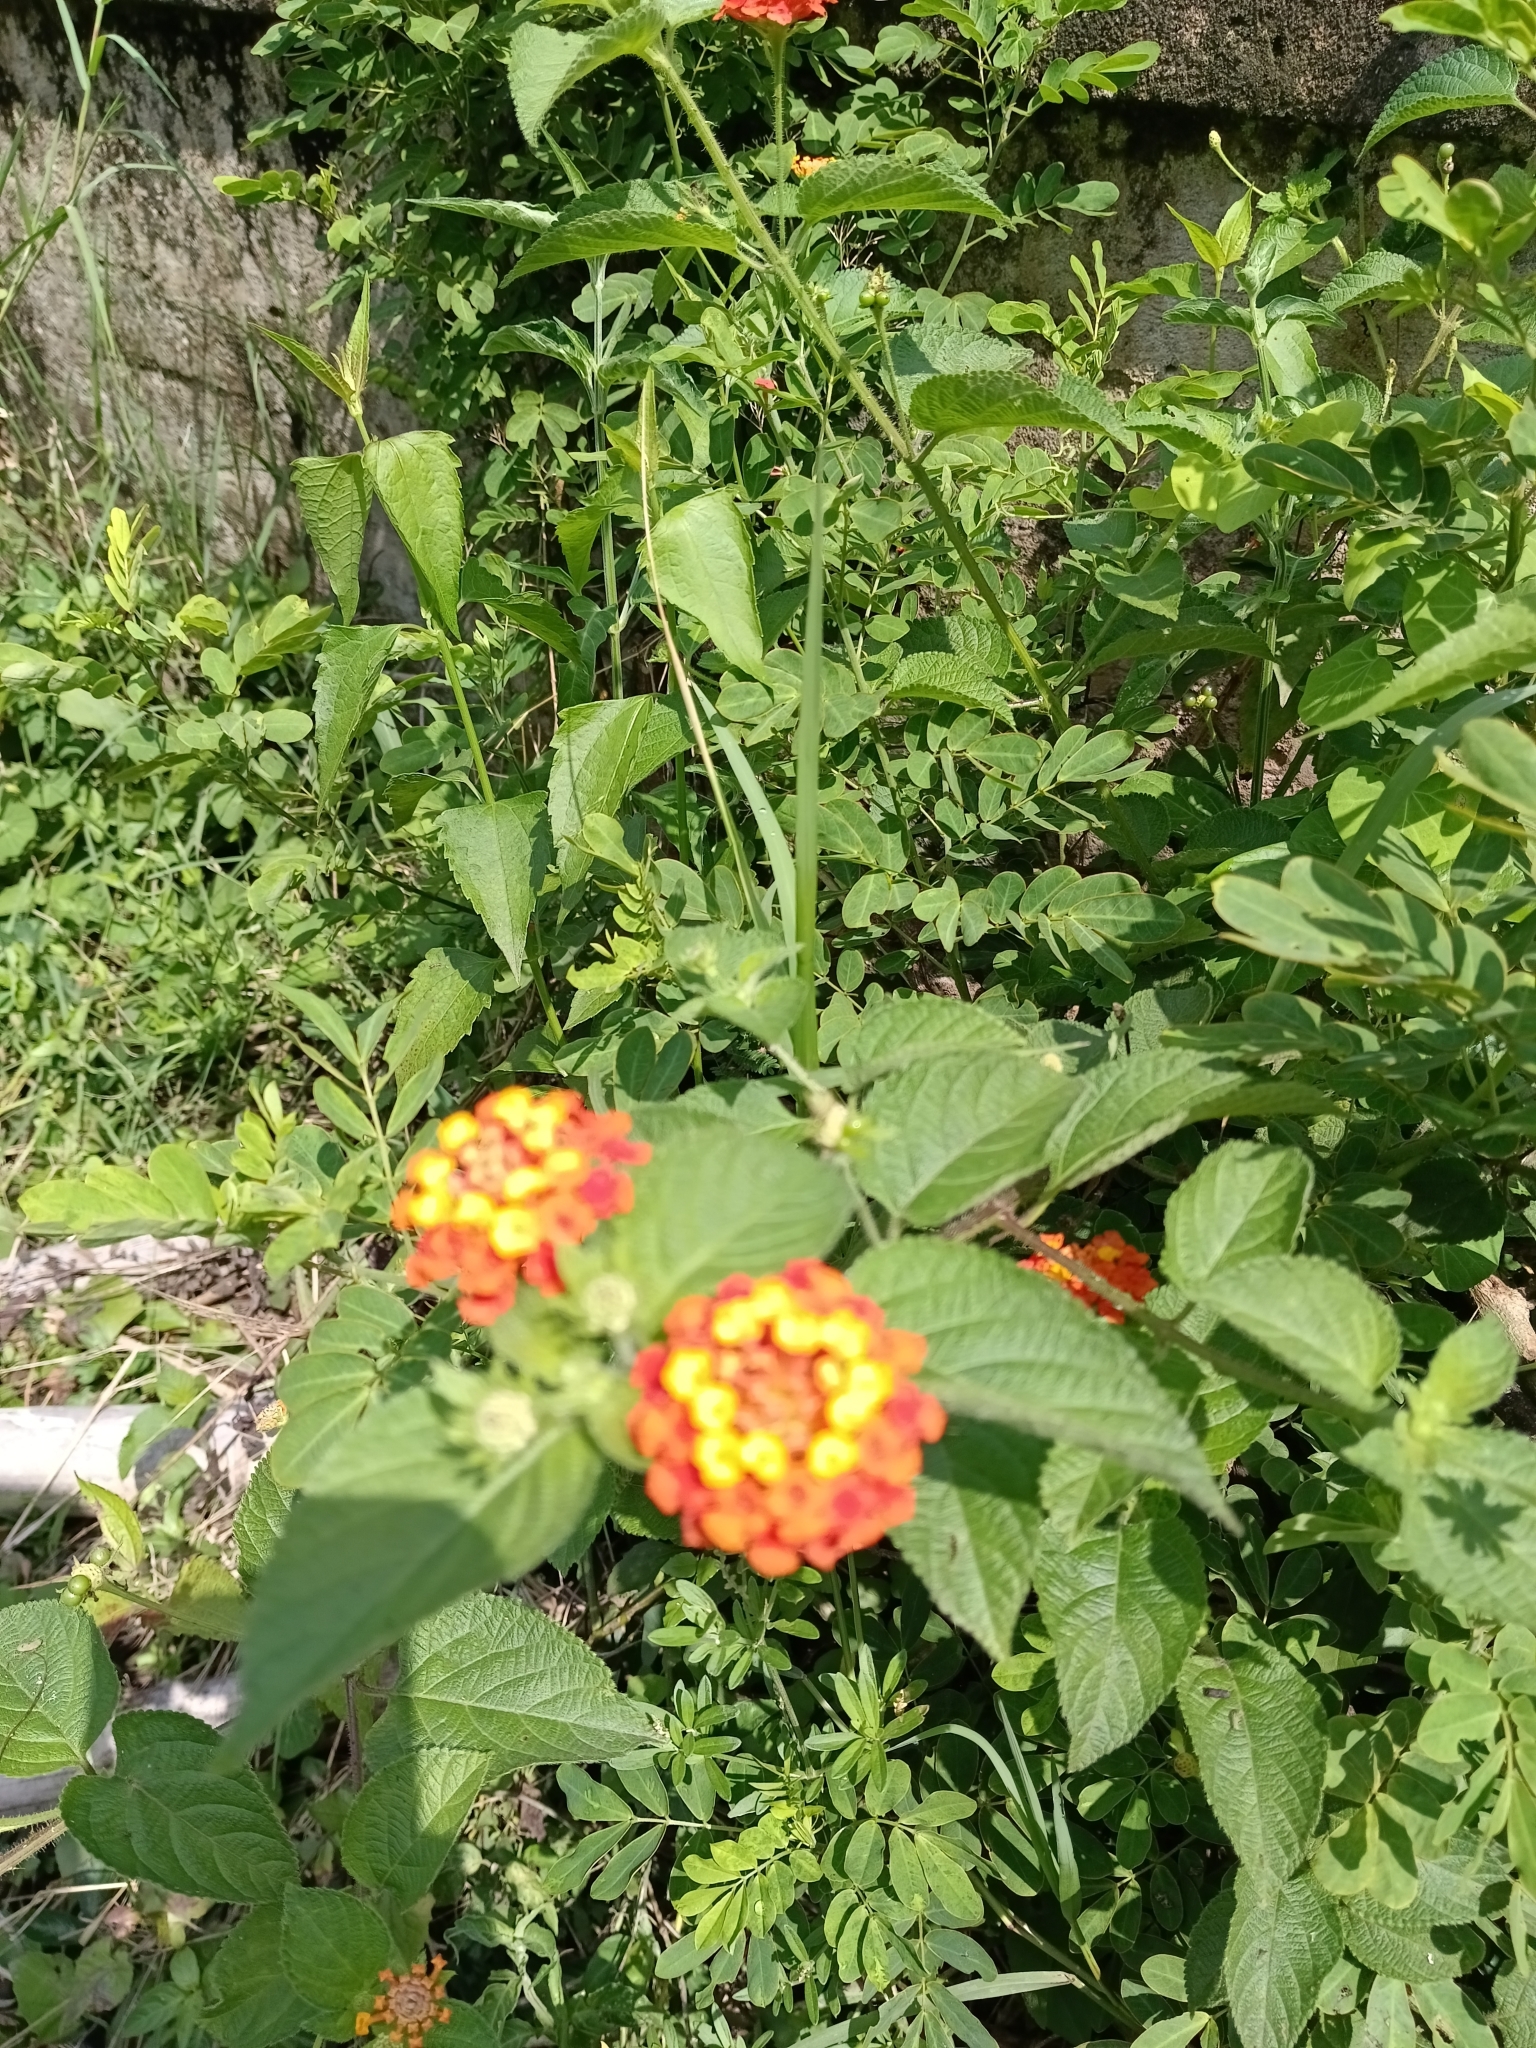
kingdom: Plantae
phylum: Tracheophyta
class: Magnoliopsida
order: Lamiales
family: Verbenaceae
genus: Lantana
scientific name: Lantana camara
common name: Lantana
